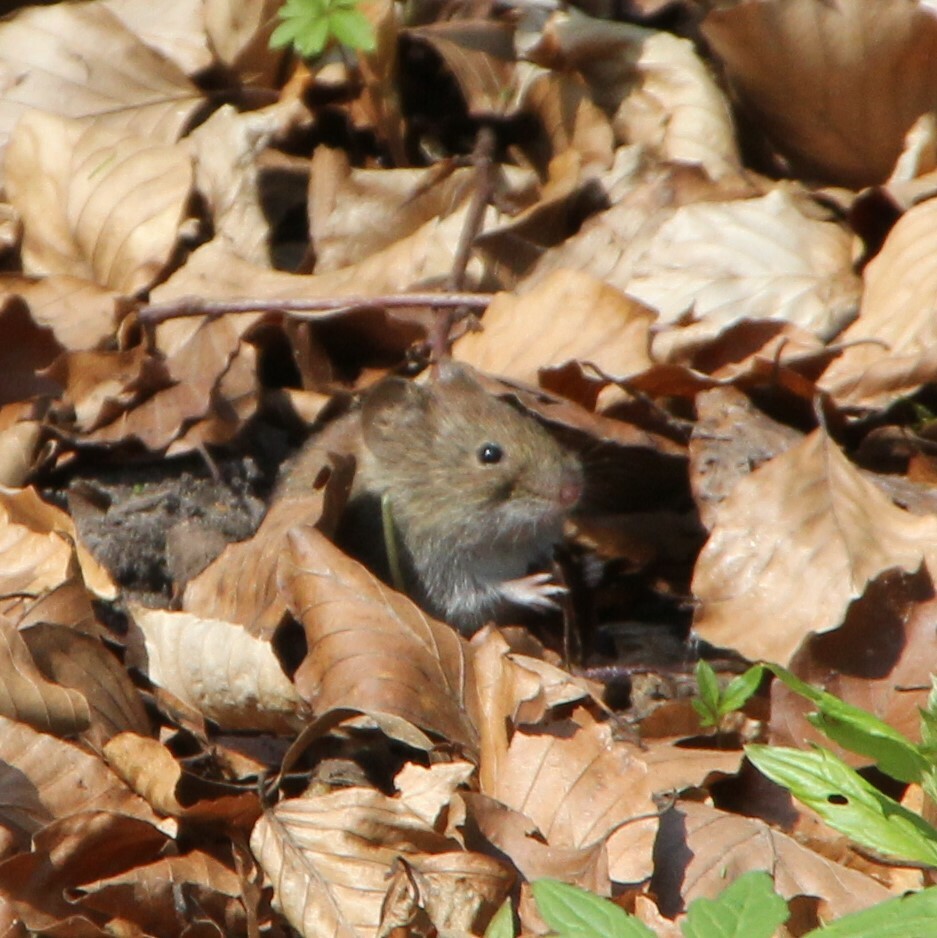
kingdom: Animalia
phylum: Chordata
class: Mammalia
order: Rodentia
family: Cricetidae
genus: Myodes
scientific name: Myodes glareolus
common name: Bank vole
